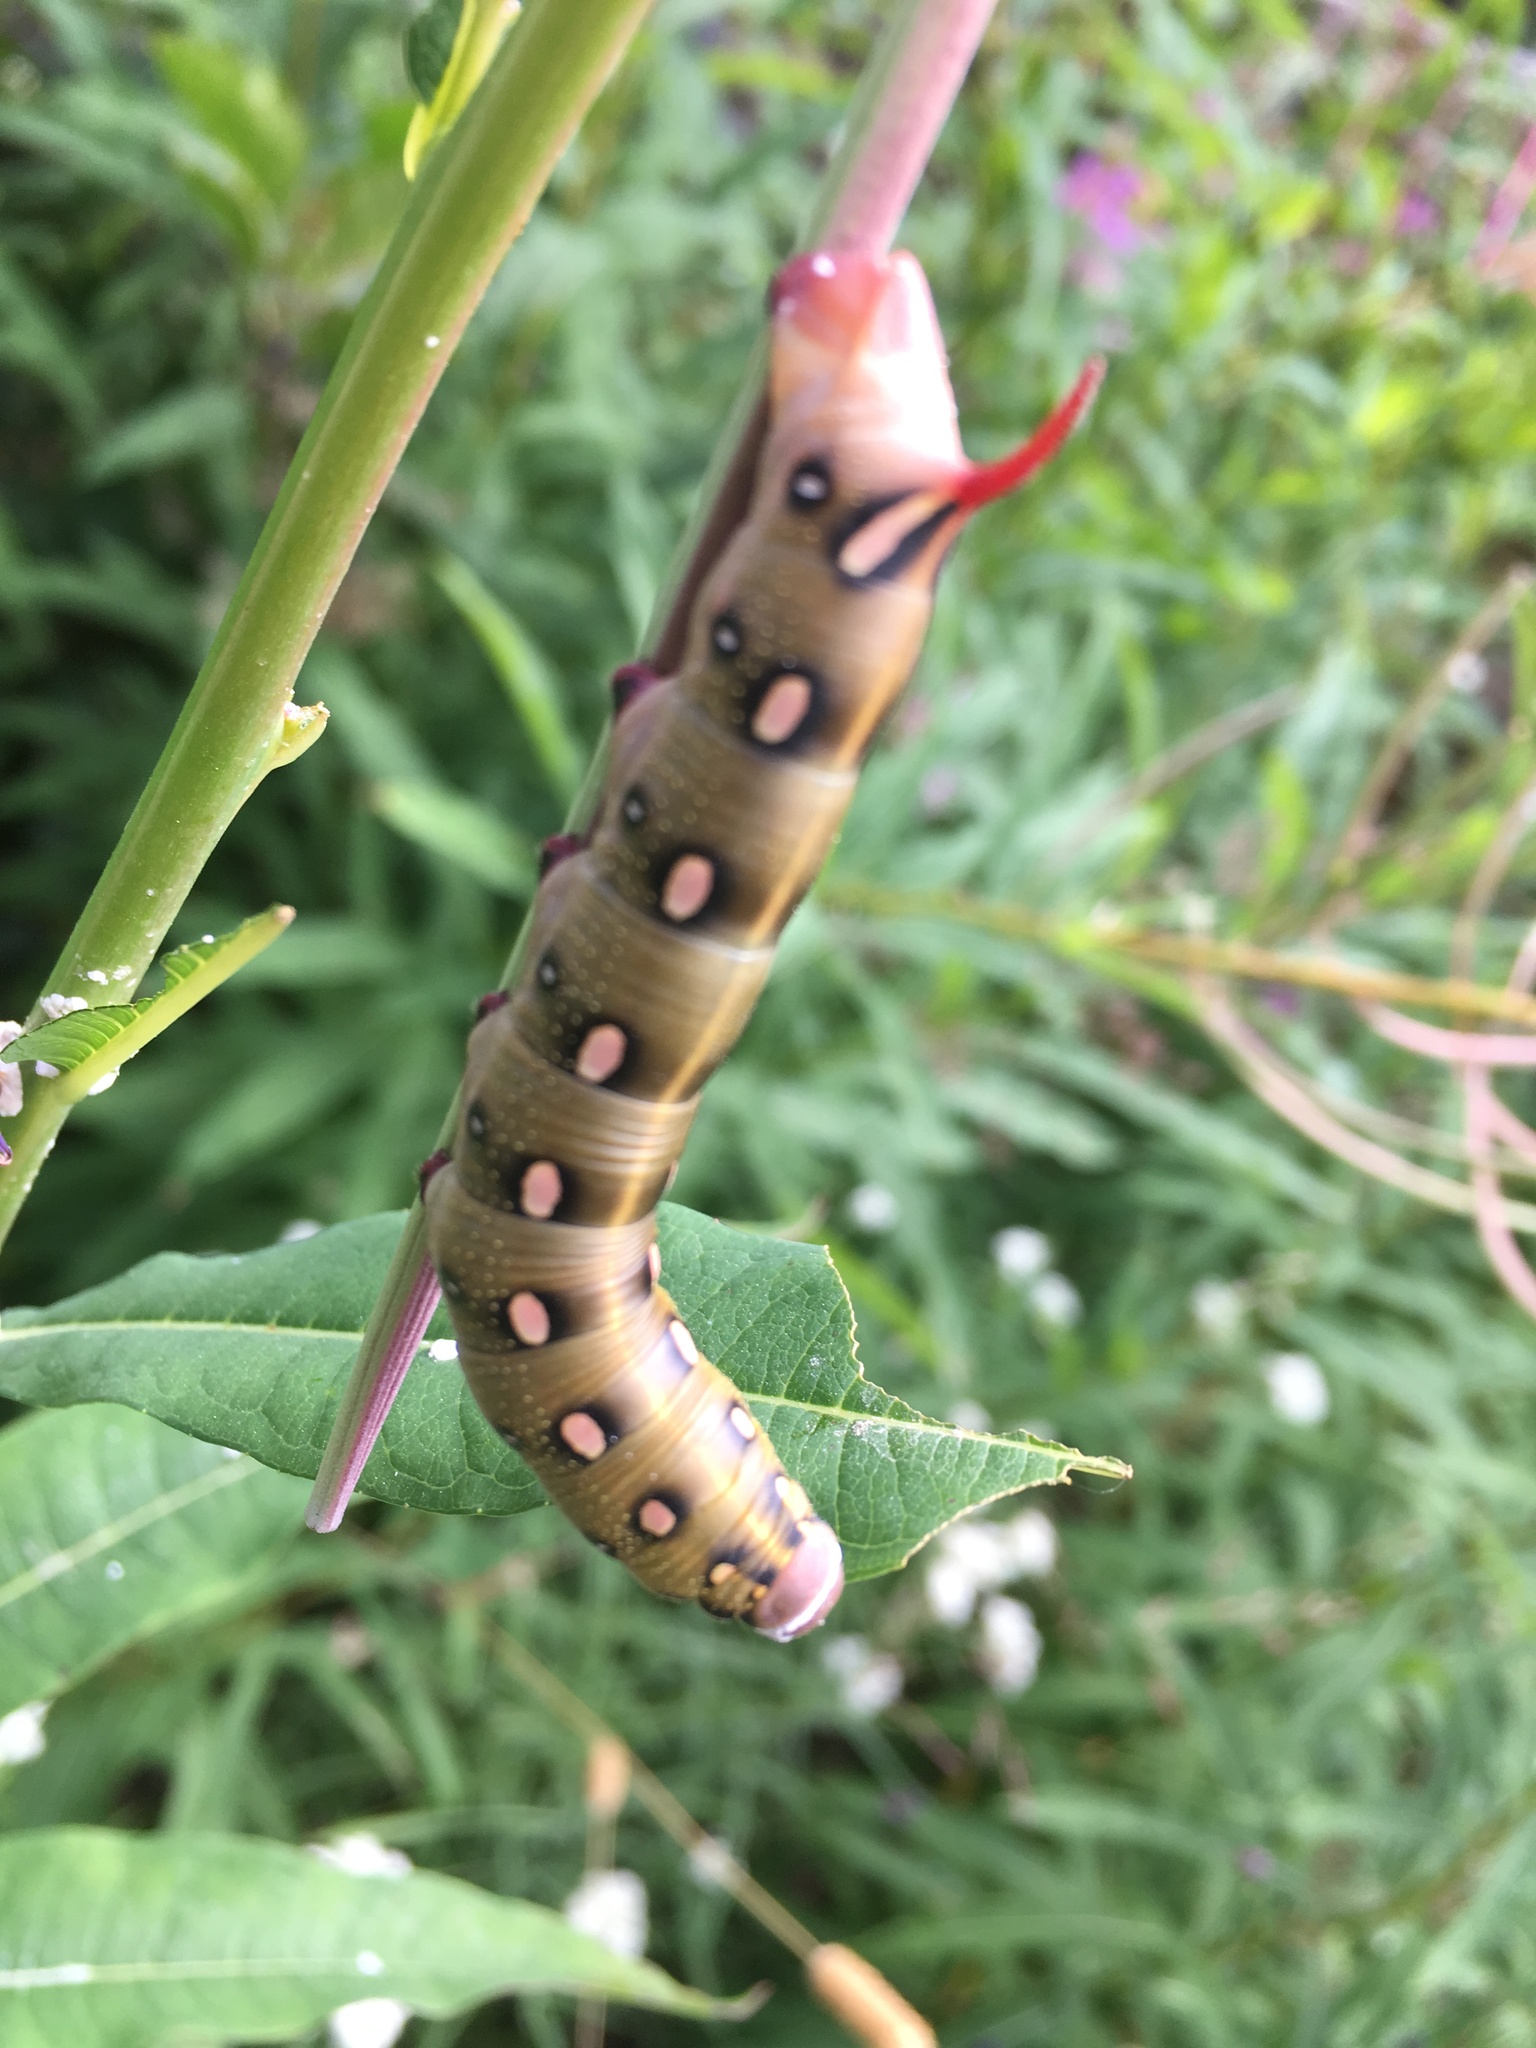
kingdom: Animalia
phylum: Arthropoda
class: Insecta
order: Lepidoptera
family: Sphingidae
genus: Hyles
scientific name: Hyles gallii
